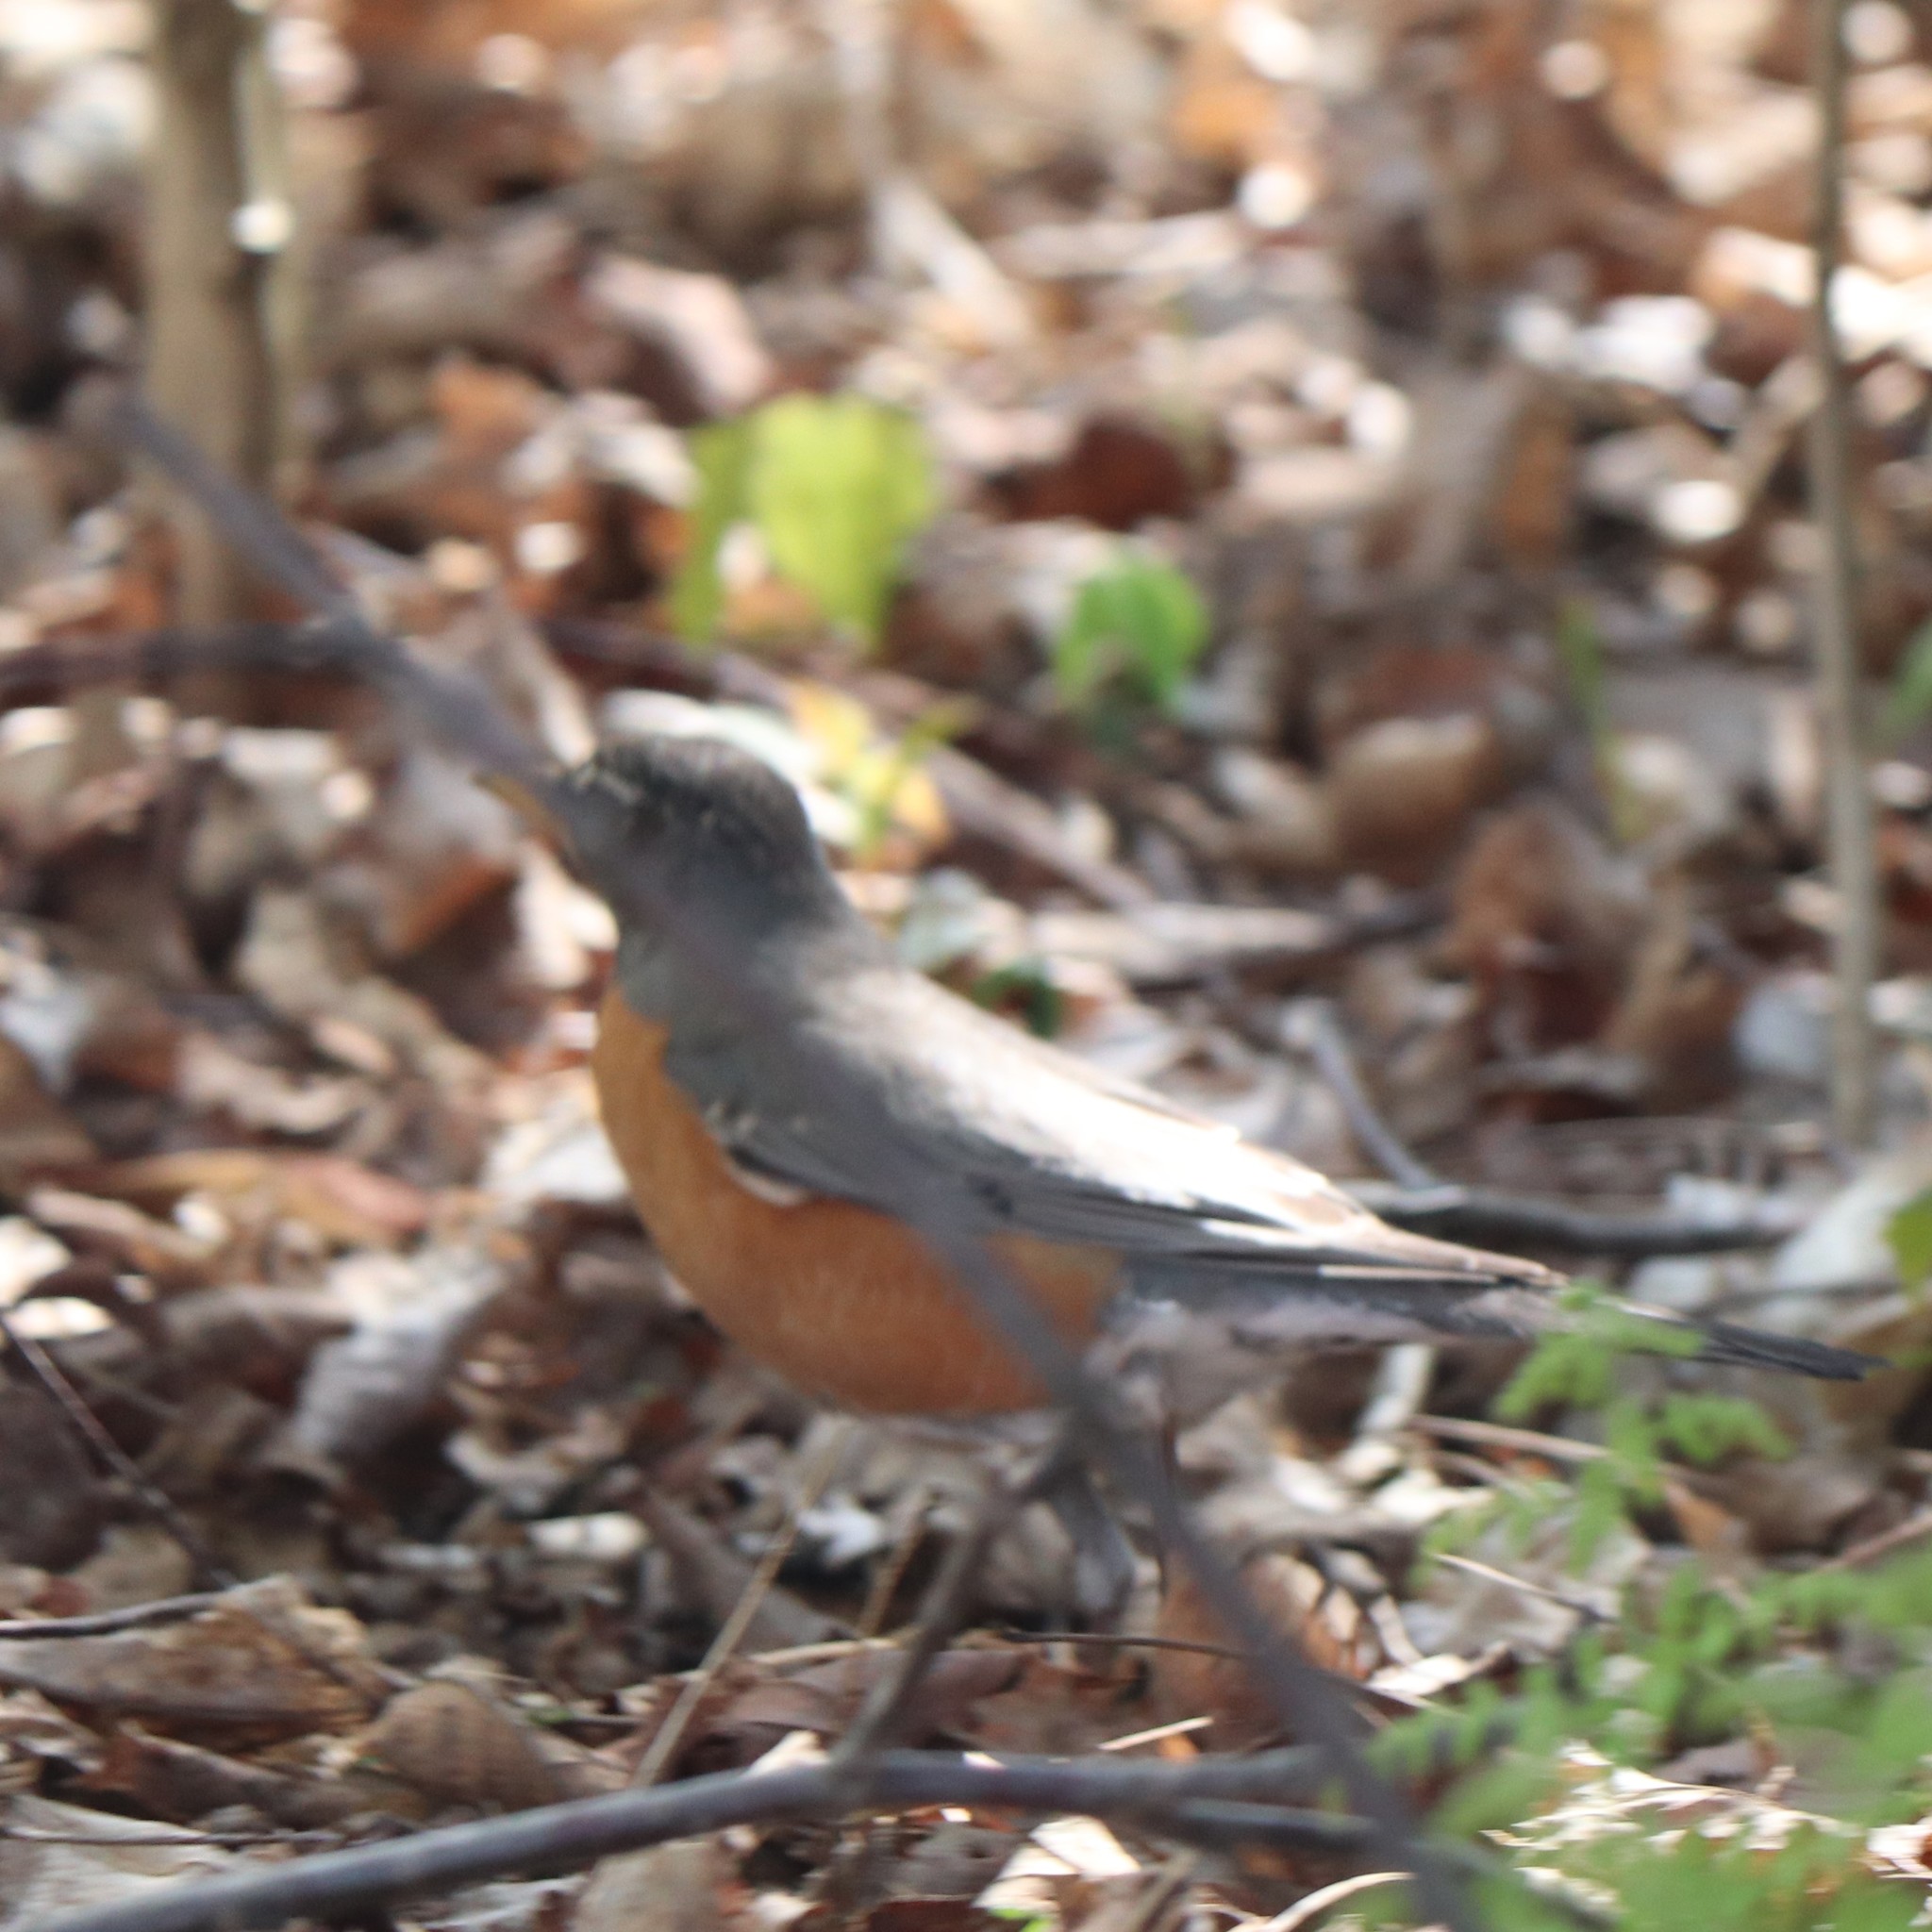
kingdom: Animalia
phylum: Chordata
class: Aves
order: Passeriformes
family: Turdidae
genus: Turdus
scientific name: Turdus migratorius
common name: American robin
